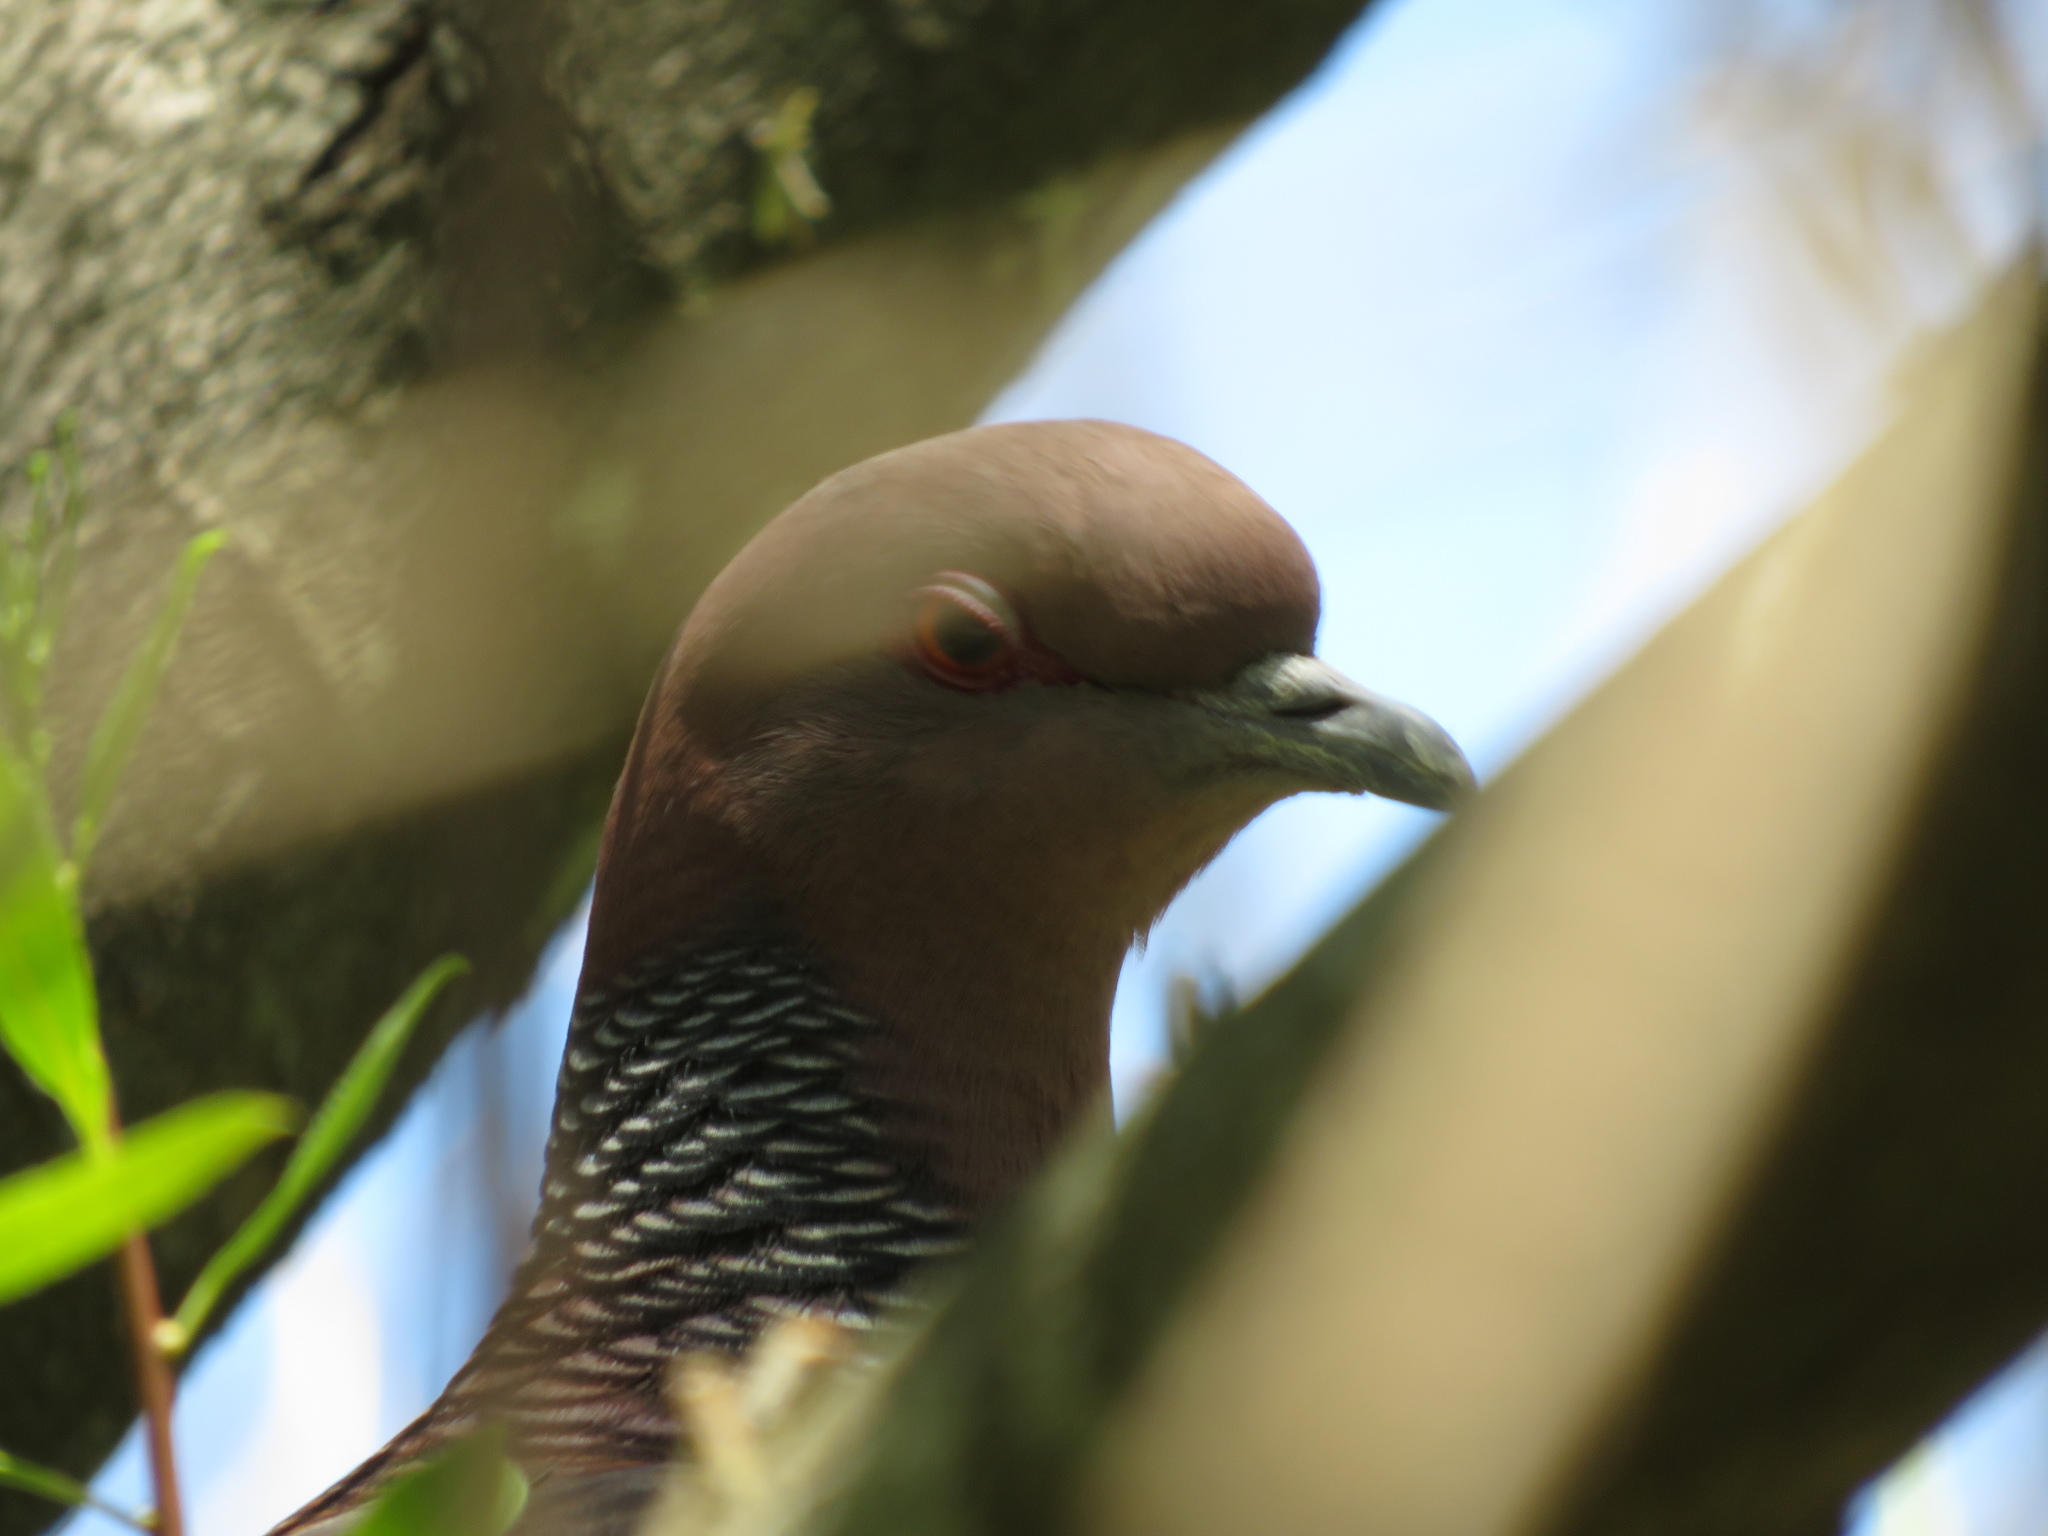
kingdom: Animalia
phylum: Chordata
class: Aves
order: Columbiformes
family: Columbidae
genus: Patagioenas
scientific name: Patagioenas picazuro
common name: Picazuro pigeon
